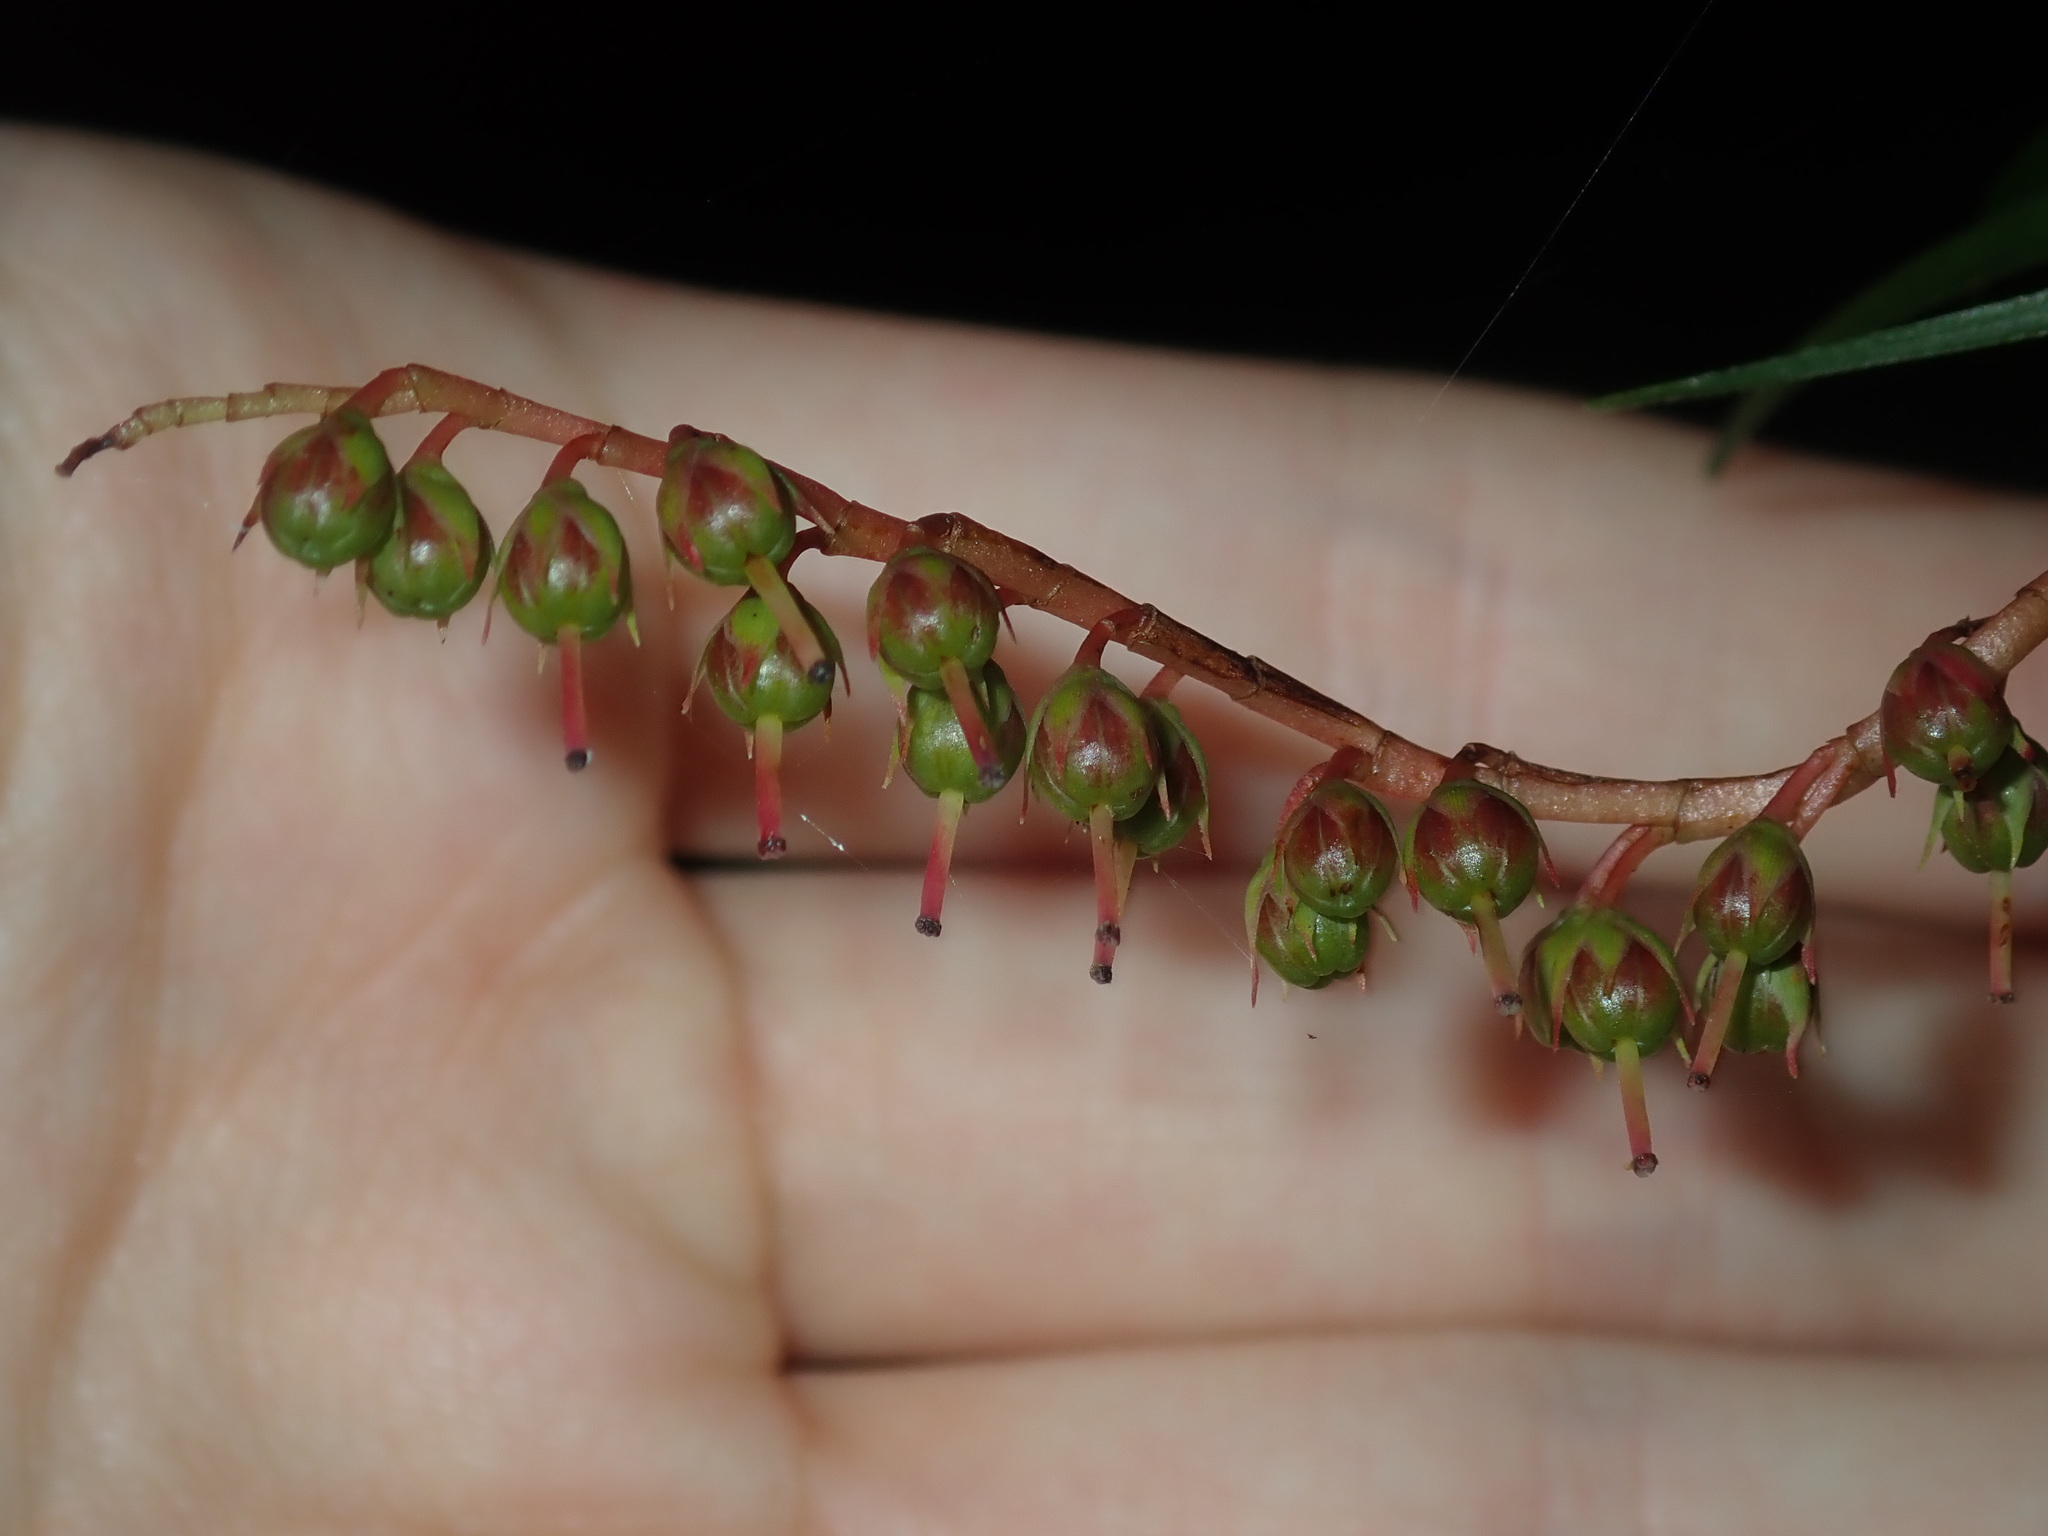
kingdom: Plantae
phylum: Tracheophyta
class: Magnoliopsida
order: Ericales
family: Ericaceae
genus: Dracophyllum
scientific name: Dracophyllum secundum
